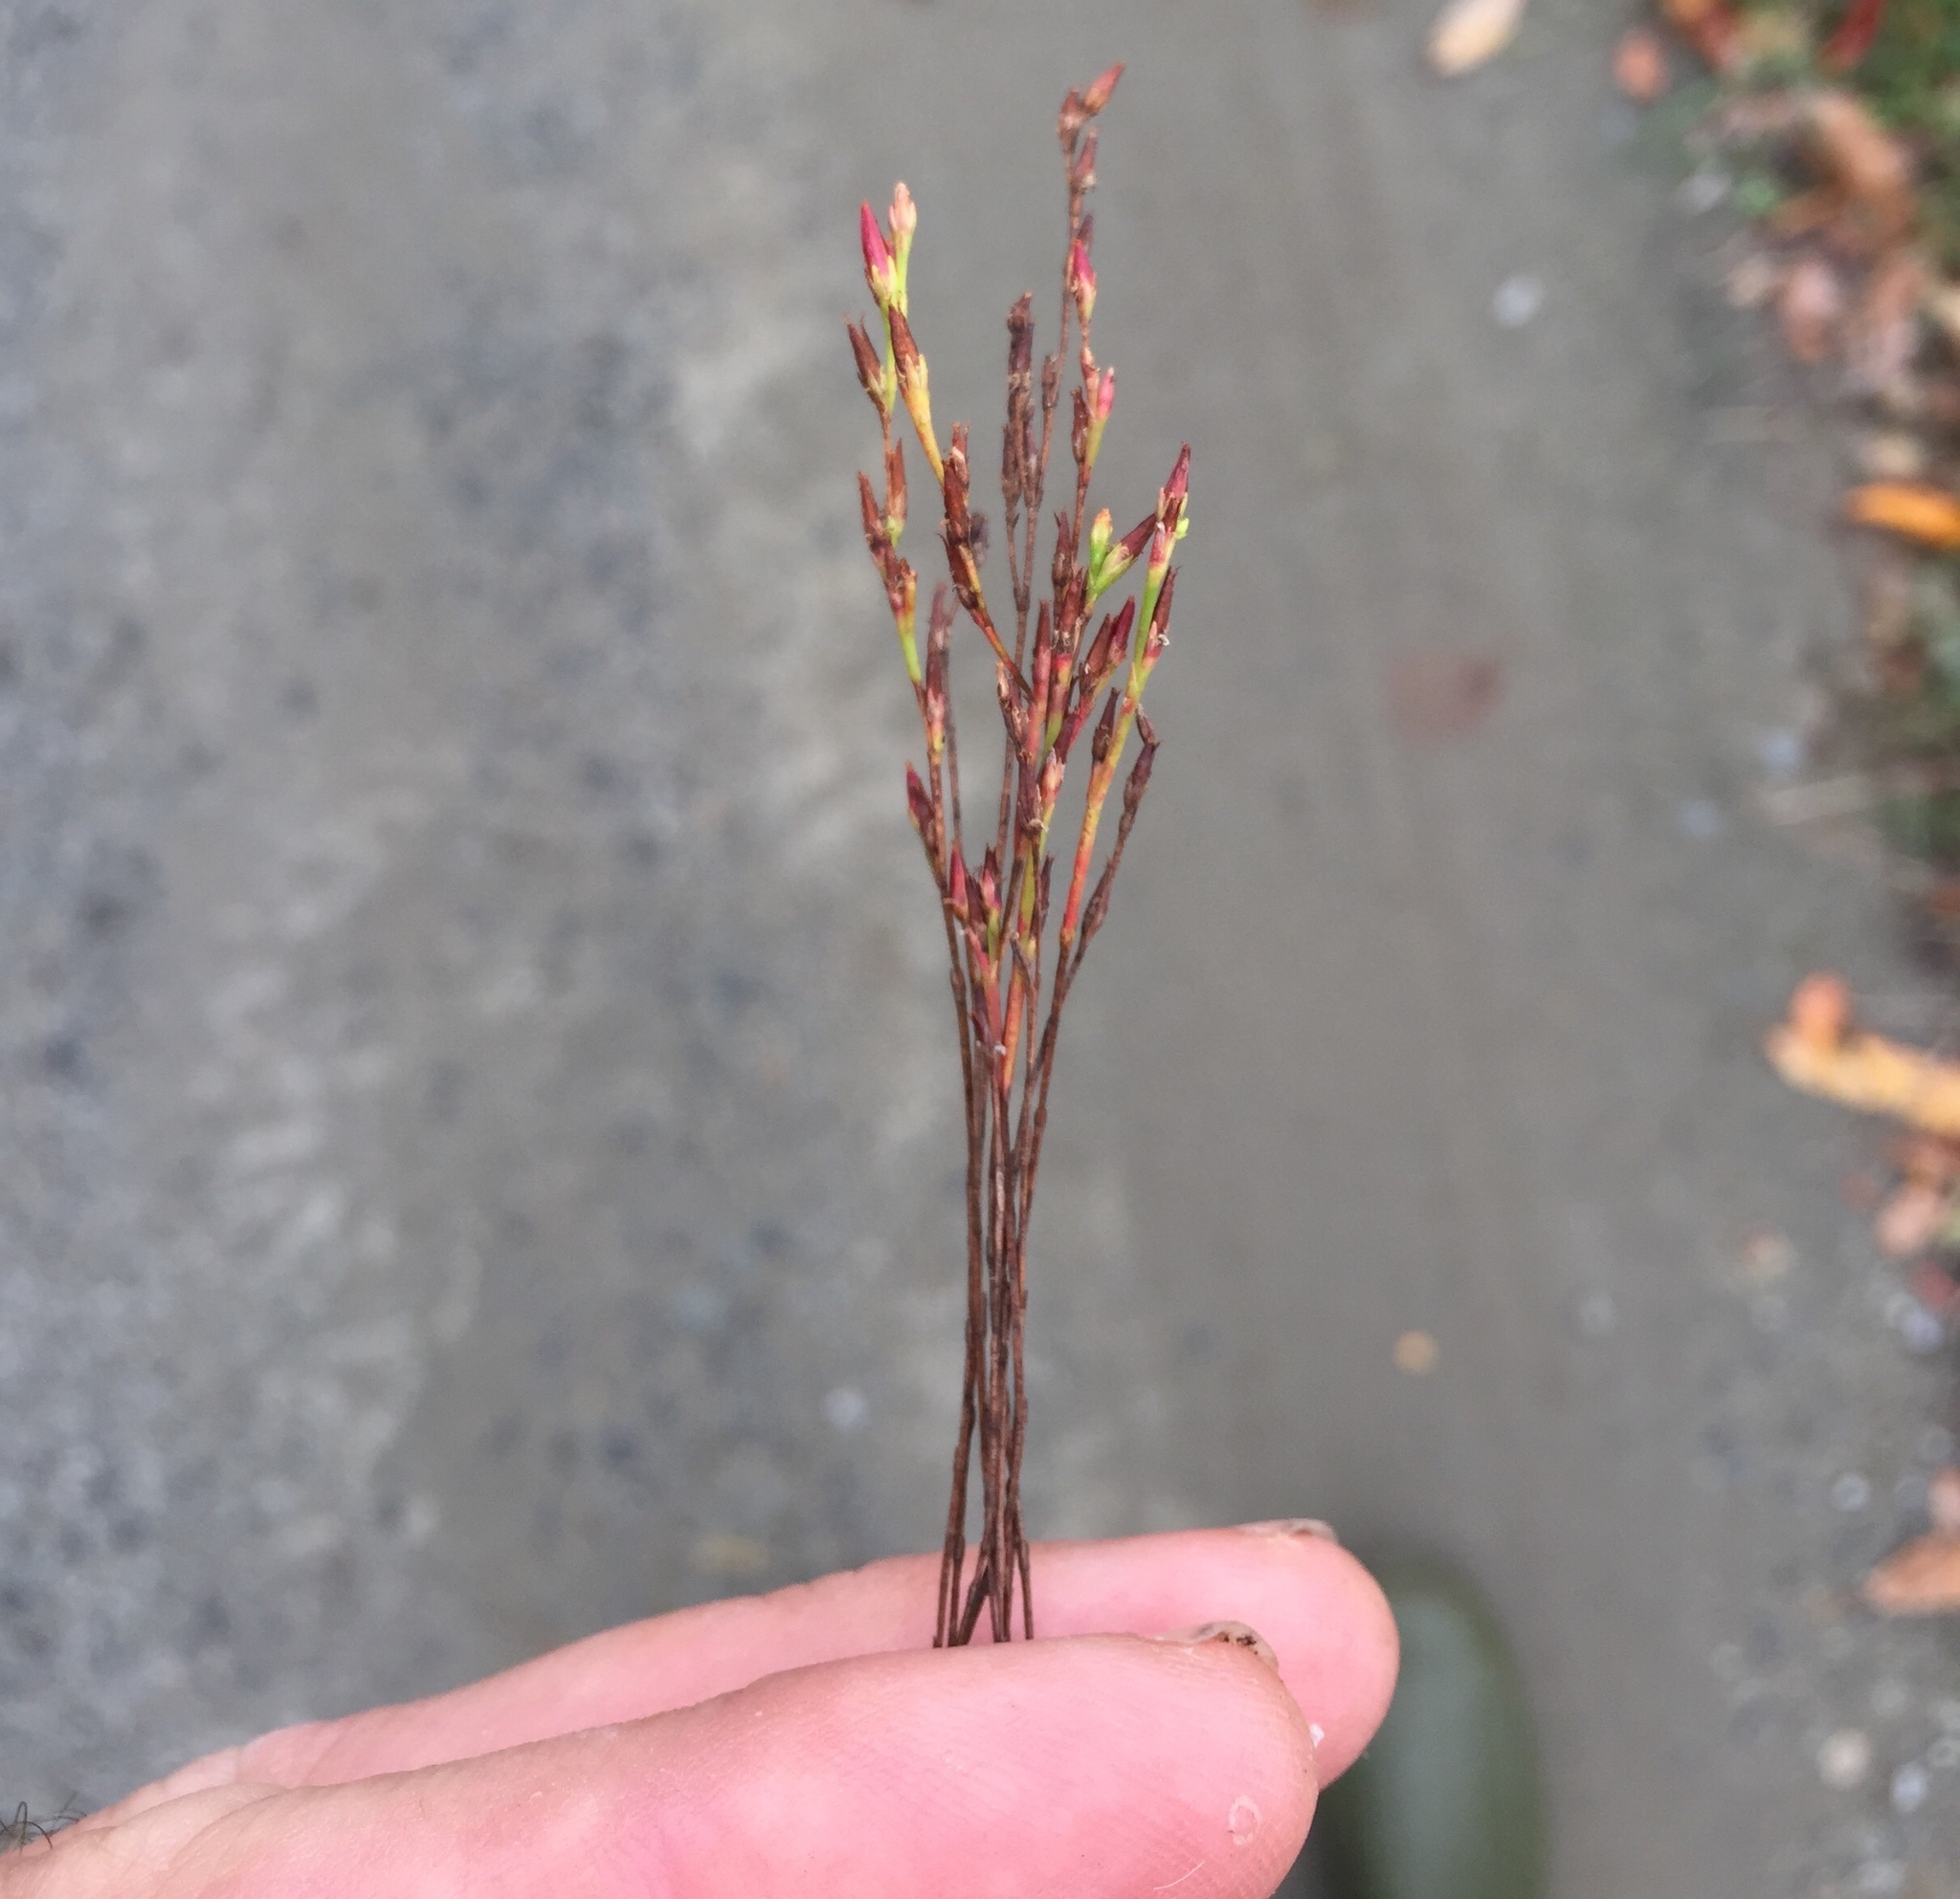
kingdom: Plantae
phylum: Tracheophyta
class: Magnoliopsida
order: Malpighiales
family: Hypericaceae
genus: Hypericum
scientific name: Hypericum gentianoides
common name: Gentian-leaved st. john's-wort
